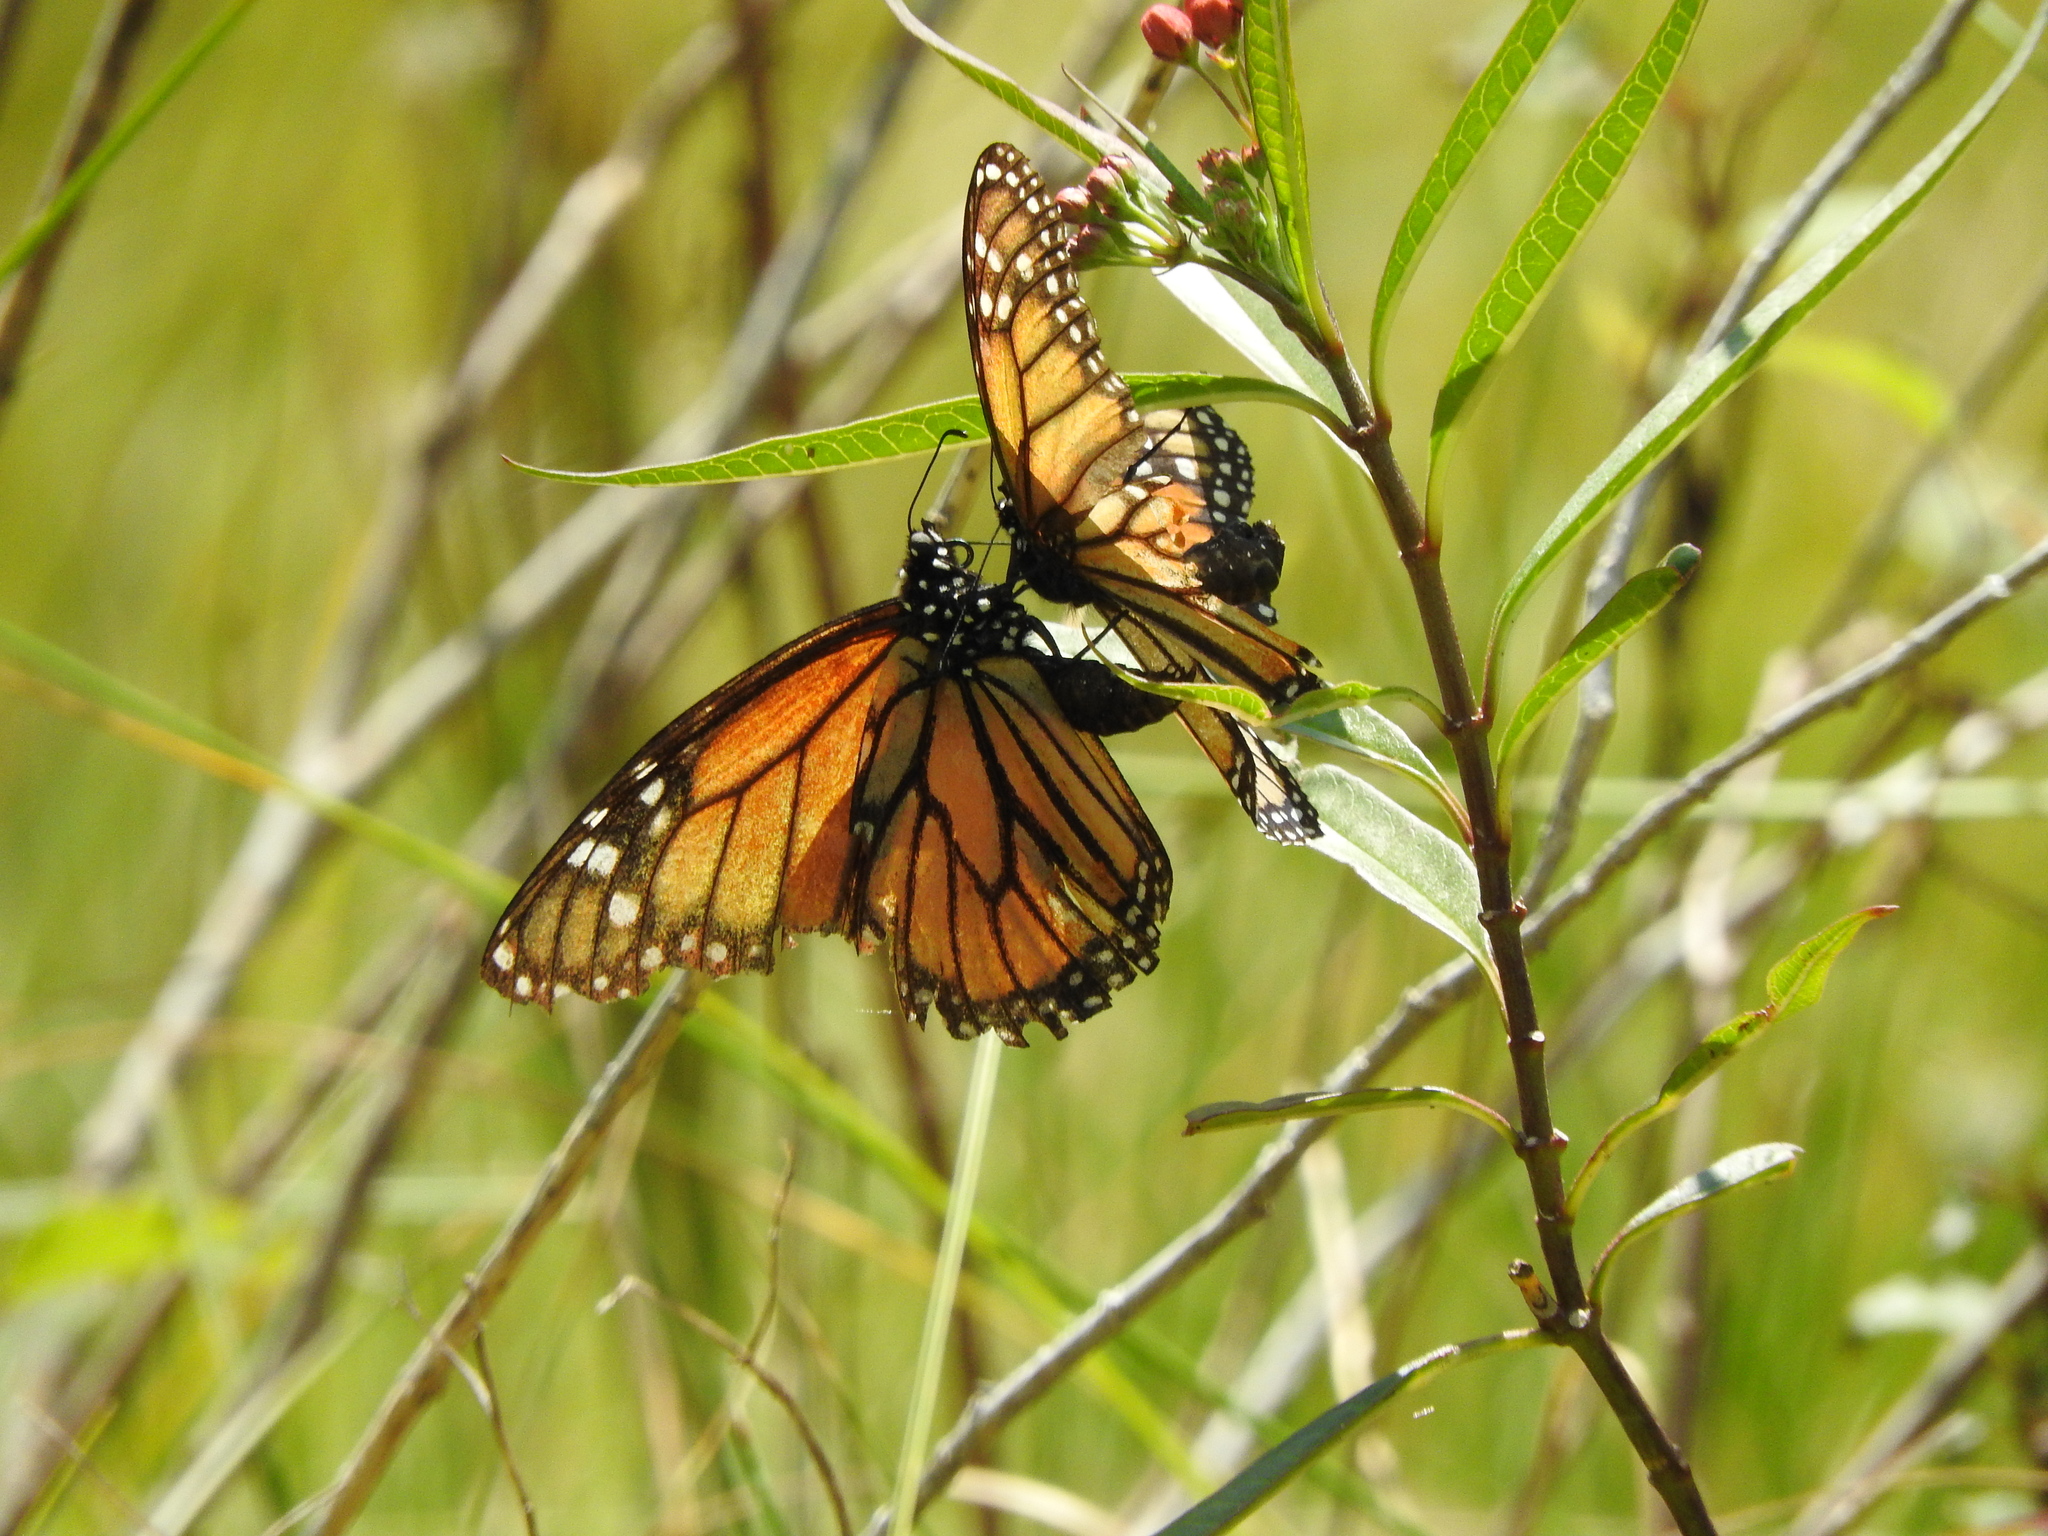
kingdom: Animalia
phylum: Arthropoda
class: Insecta
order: Lepidoptera
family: Nymphalidae
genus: Danaus
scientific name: Danaus plexippus
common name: Monarch
